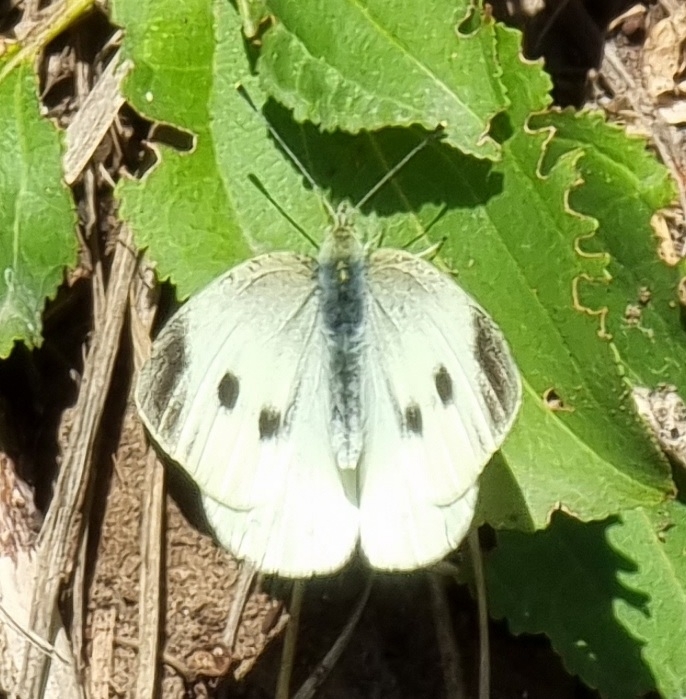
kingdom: Animalia
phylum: Arthropoda
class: Insecta
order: Lepidoptera
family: Pieridae
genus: Pieris
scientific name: Pieris rapae
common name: Small white
